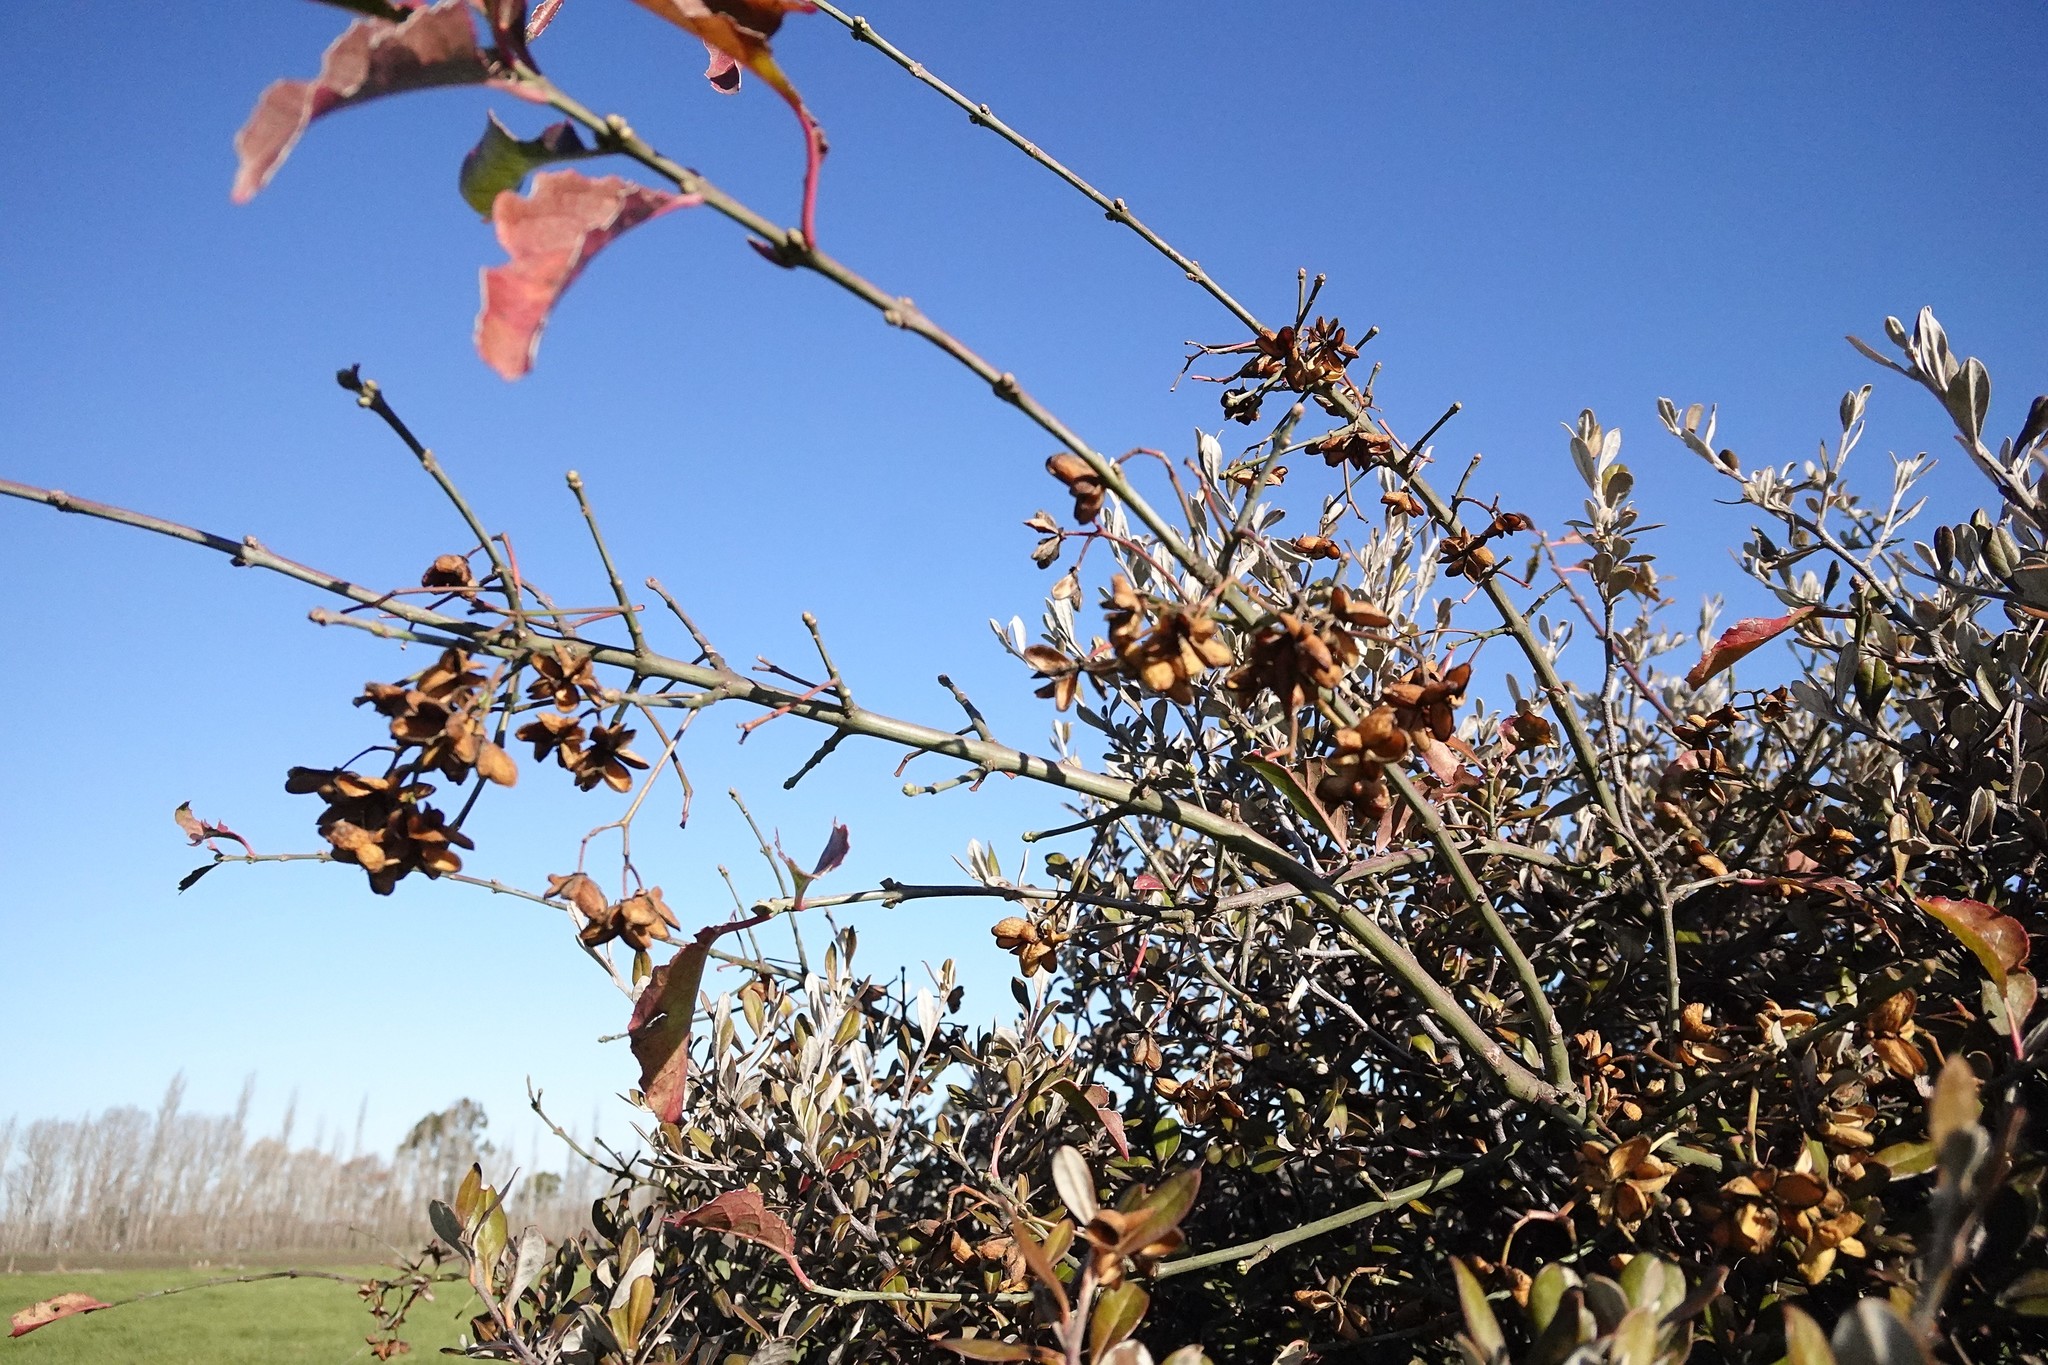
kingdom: Plantae
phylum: Tracheophyta
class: Magnoliopsida
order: Celastrales
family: Celastraceae
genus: Euonymus
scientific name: Euonymus europaeus
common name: Spindle
